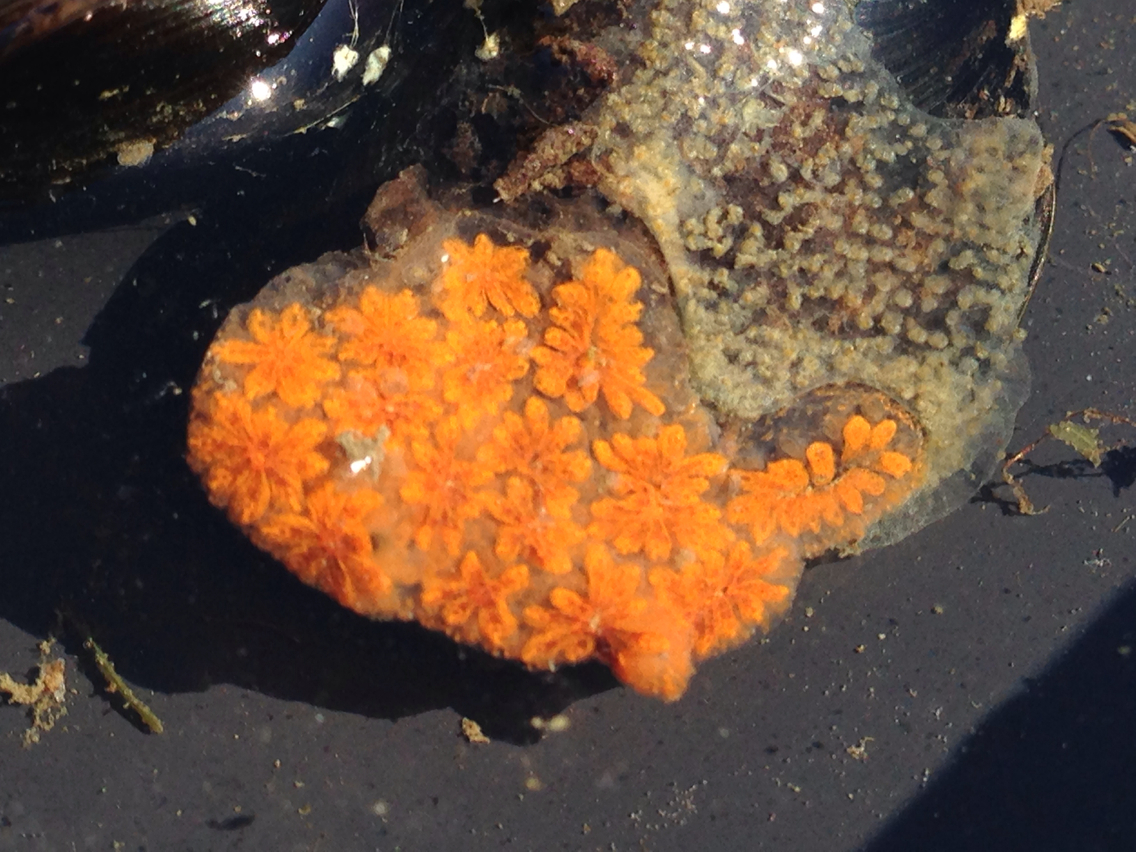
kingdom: Animalia
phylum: Chordata
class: Ascidiacea
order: Stolidobranchia
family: Styelidae
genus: Botryllus
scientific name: Botryllus schlosseri
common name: Golden star tunicate
